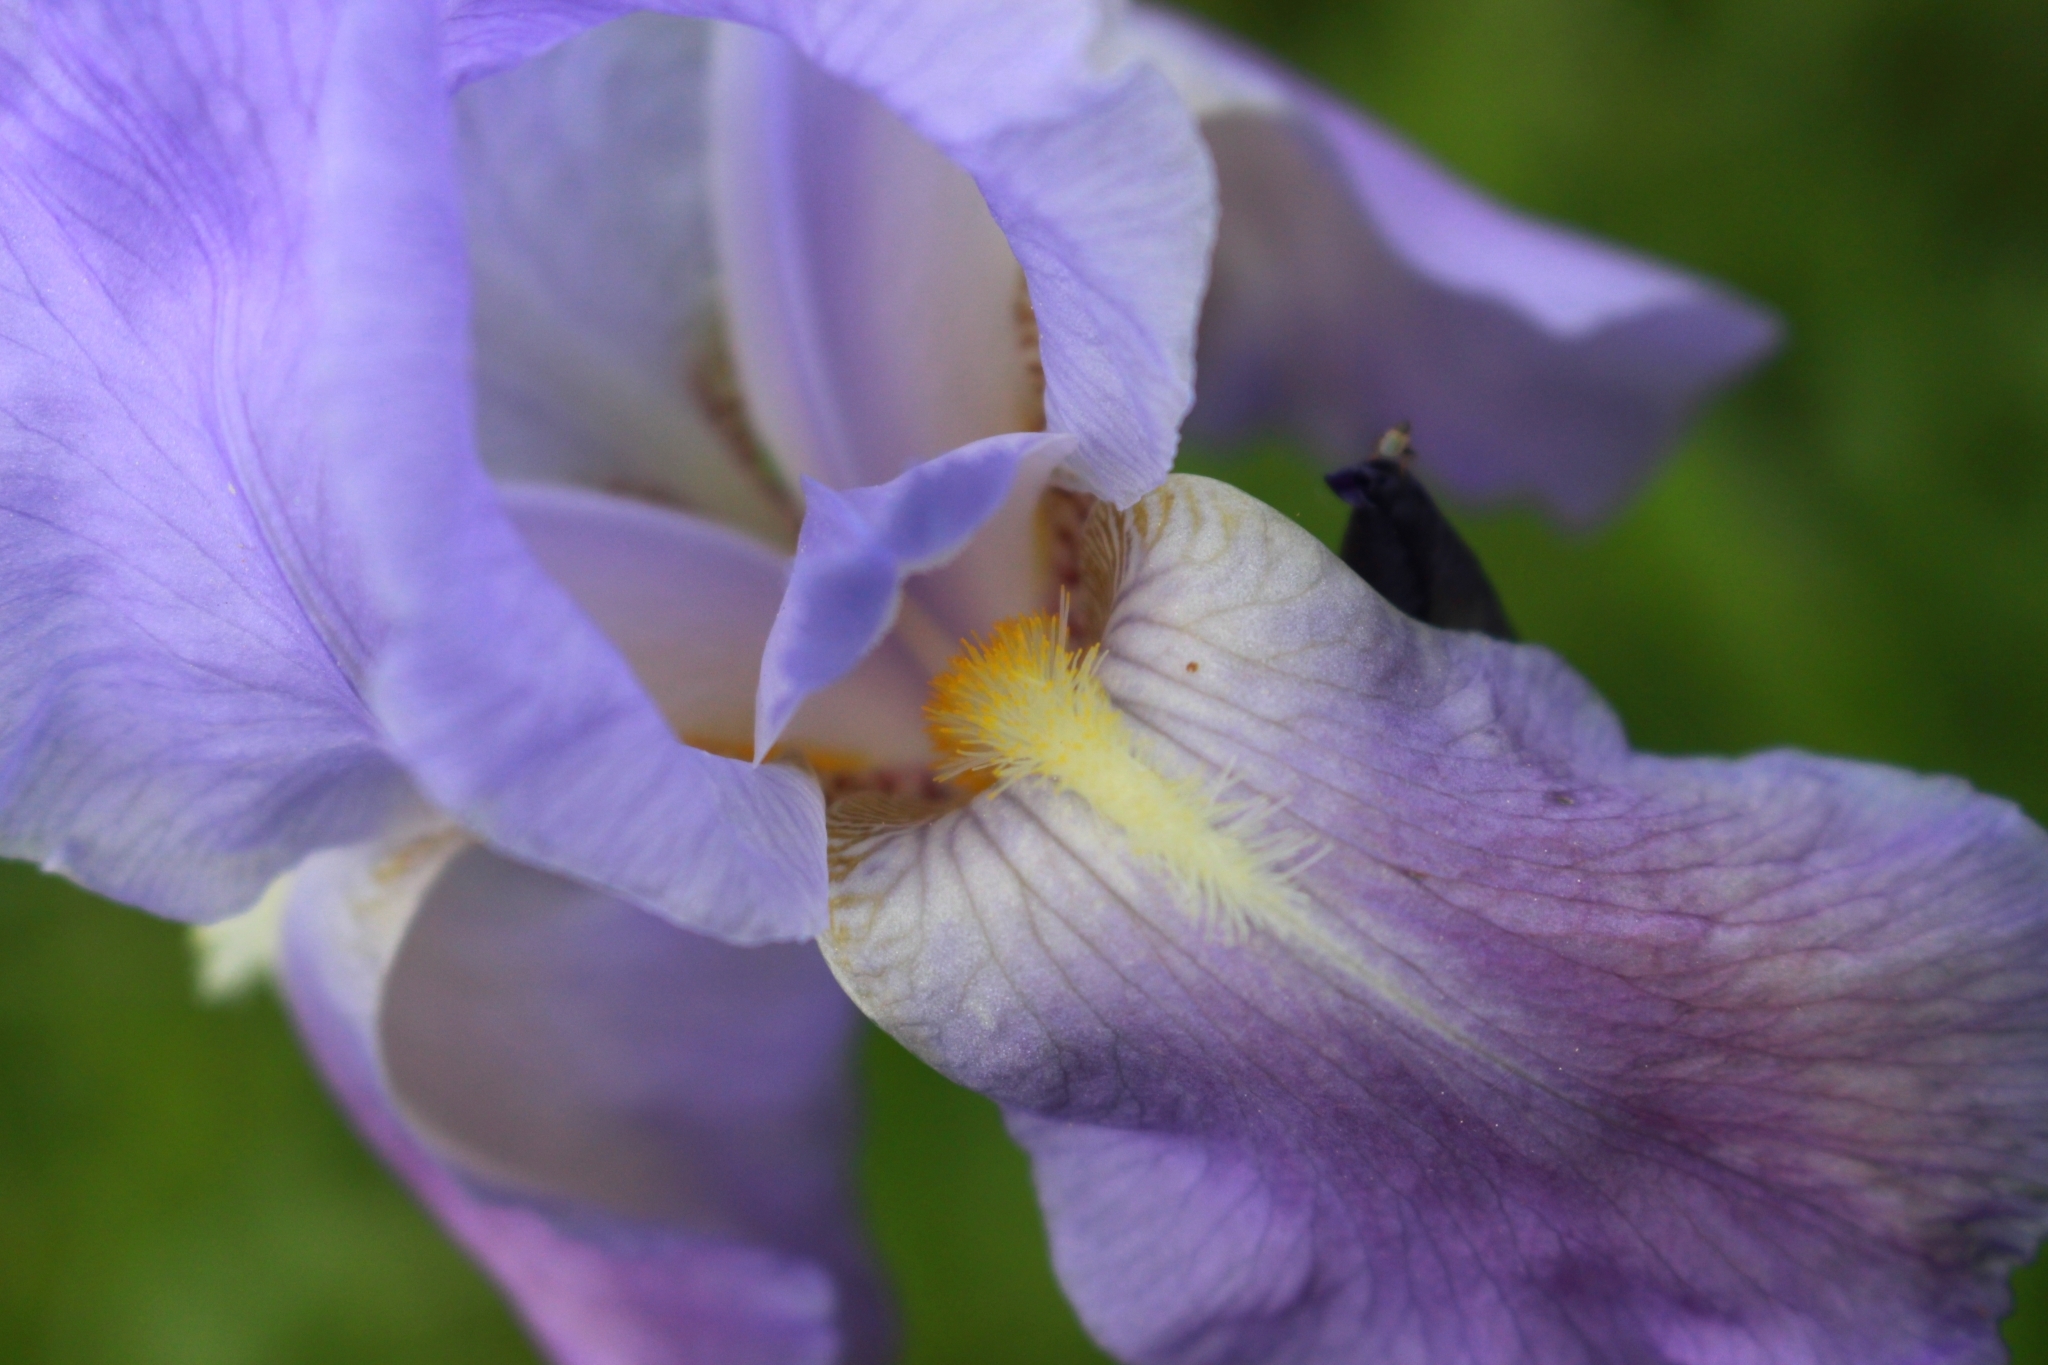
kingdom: Plantae
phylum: Tracheophyta
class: Liliopsida
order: Asparagales
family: Iridaceae
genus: Iris
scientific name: Iris pallida
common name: Sweet iris
